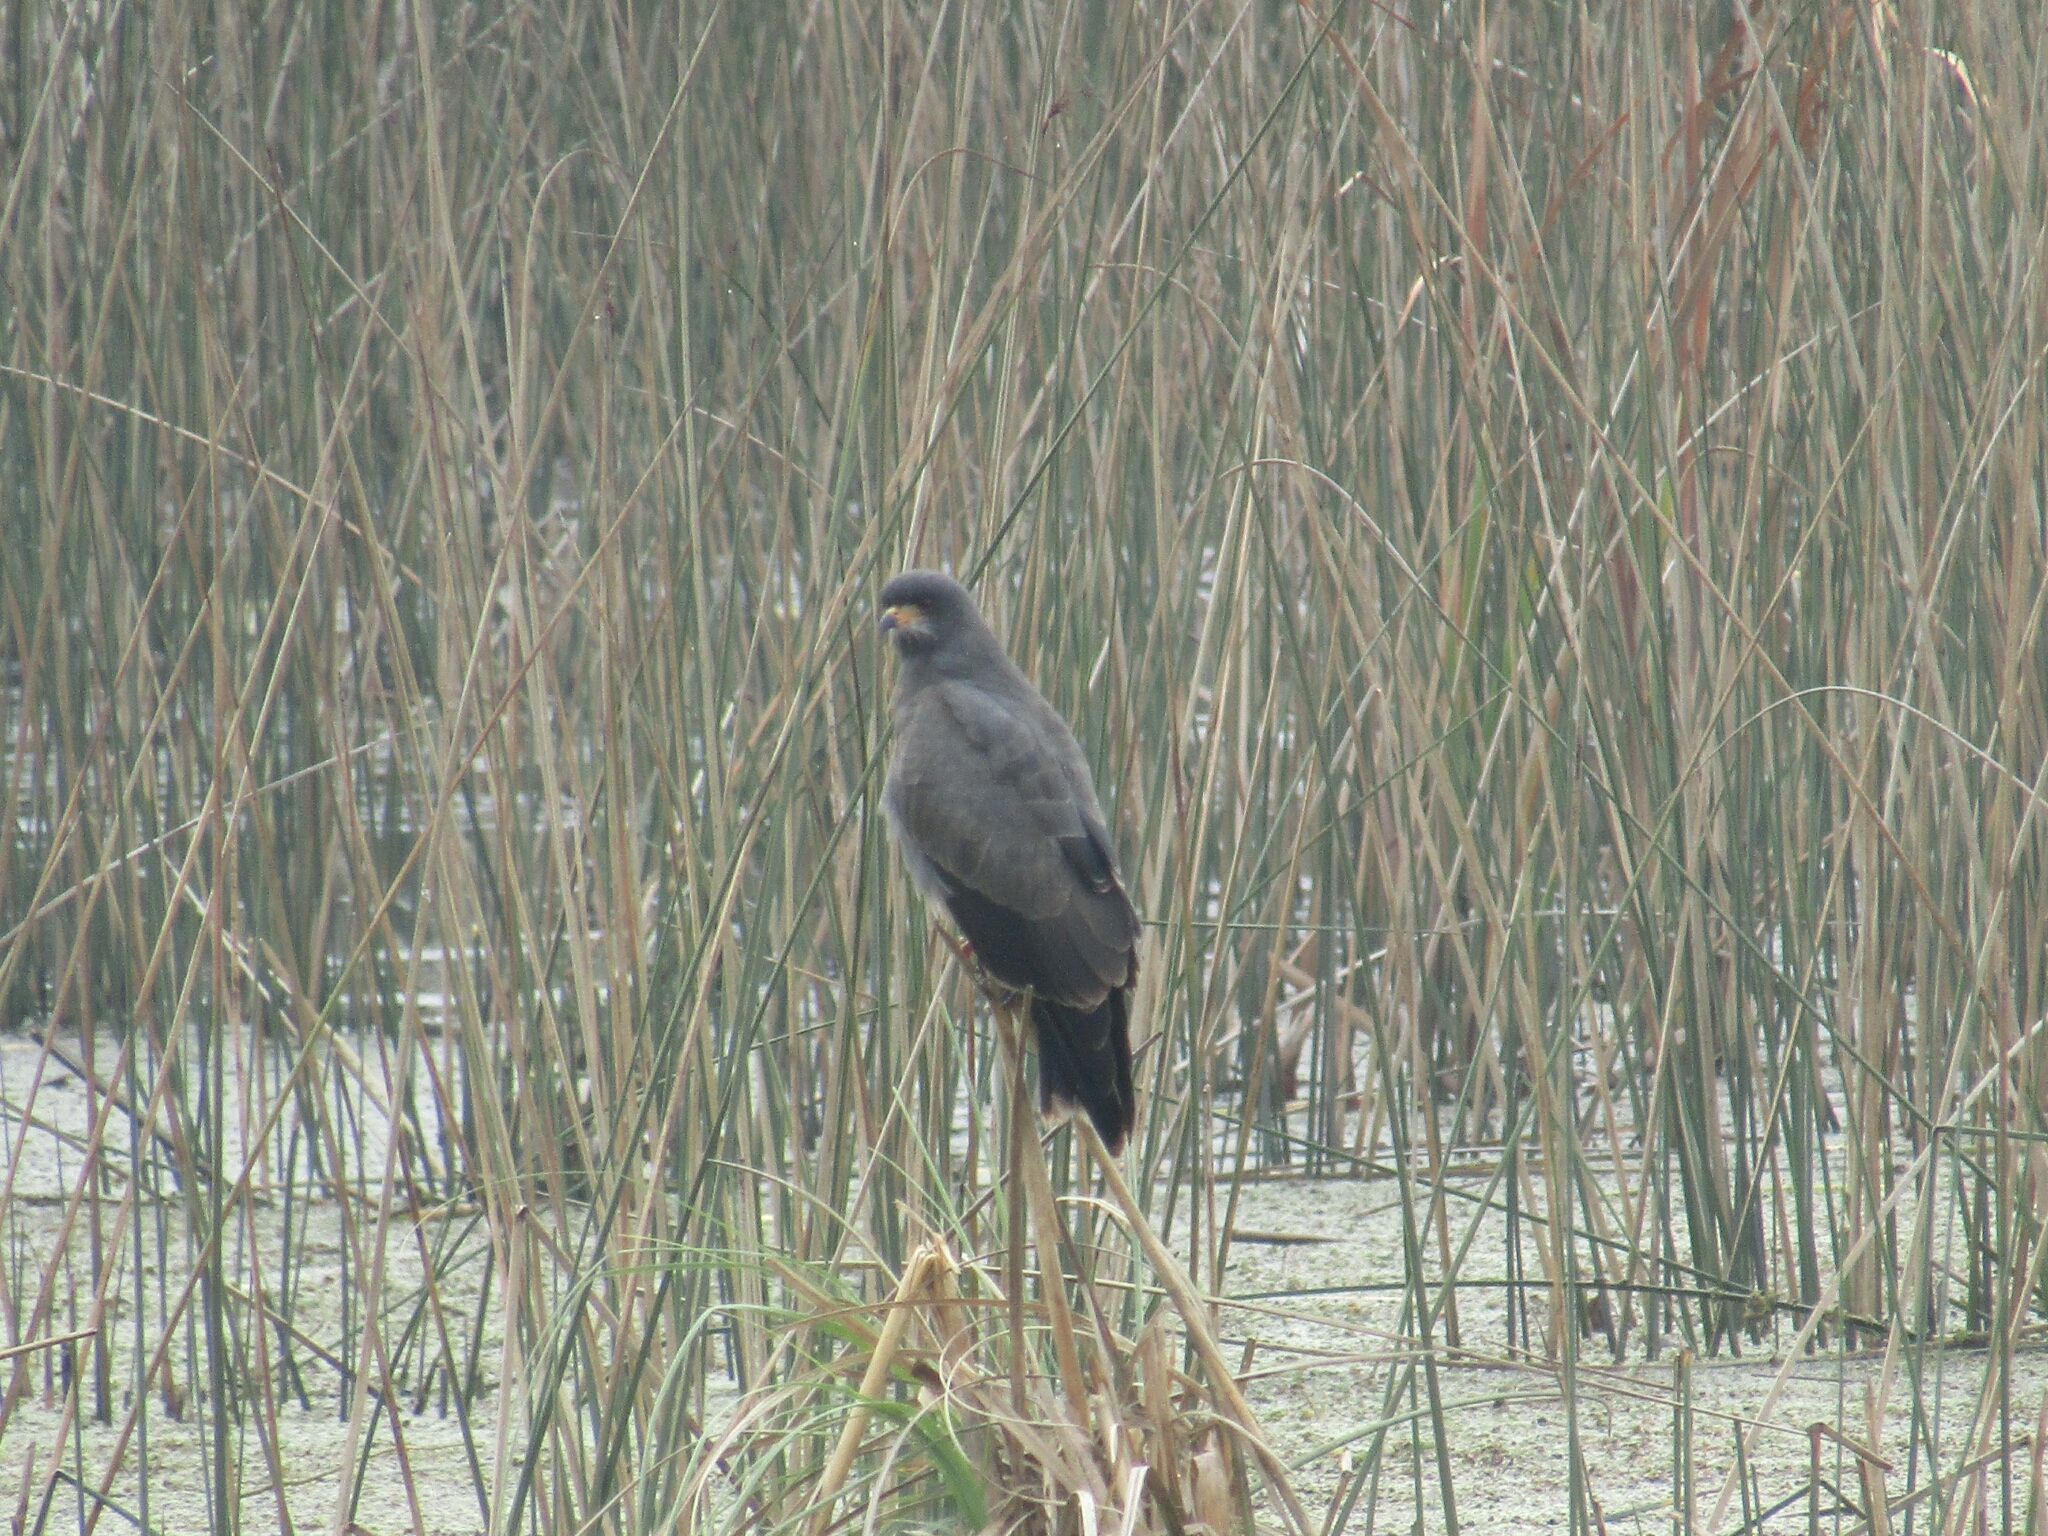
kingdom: Animalia
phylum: Chordata
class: Aves
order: Accipitriformes
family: Accipitridae
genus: Rostrhamus
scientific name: Rostrhamus sociabilis
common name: Snail kite
